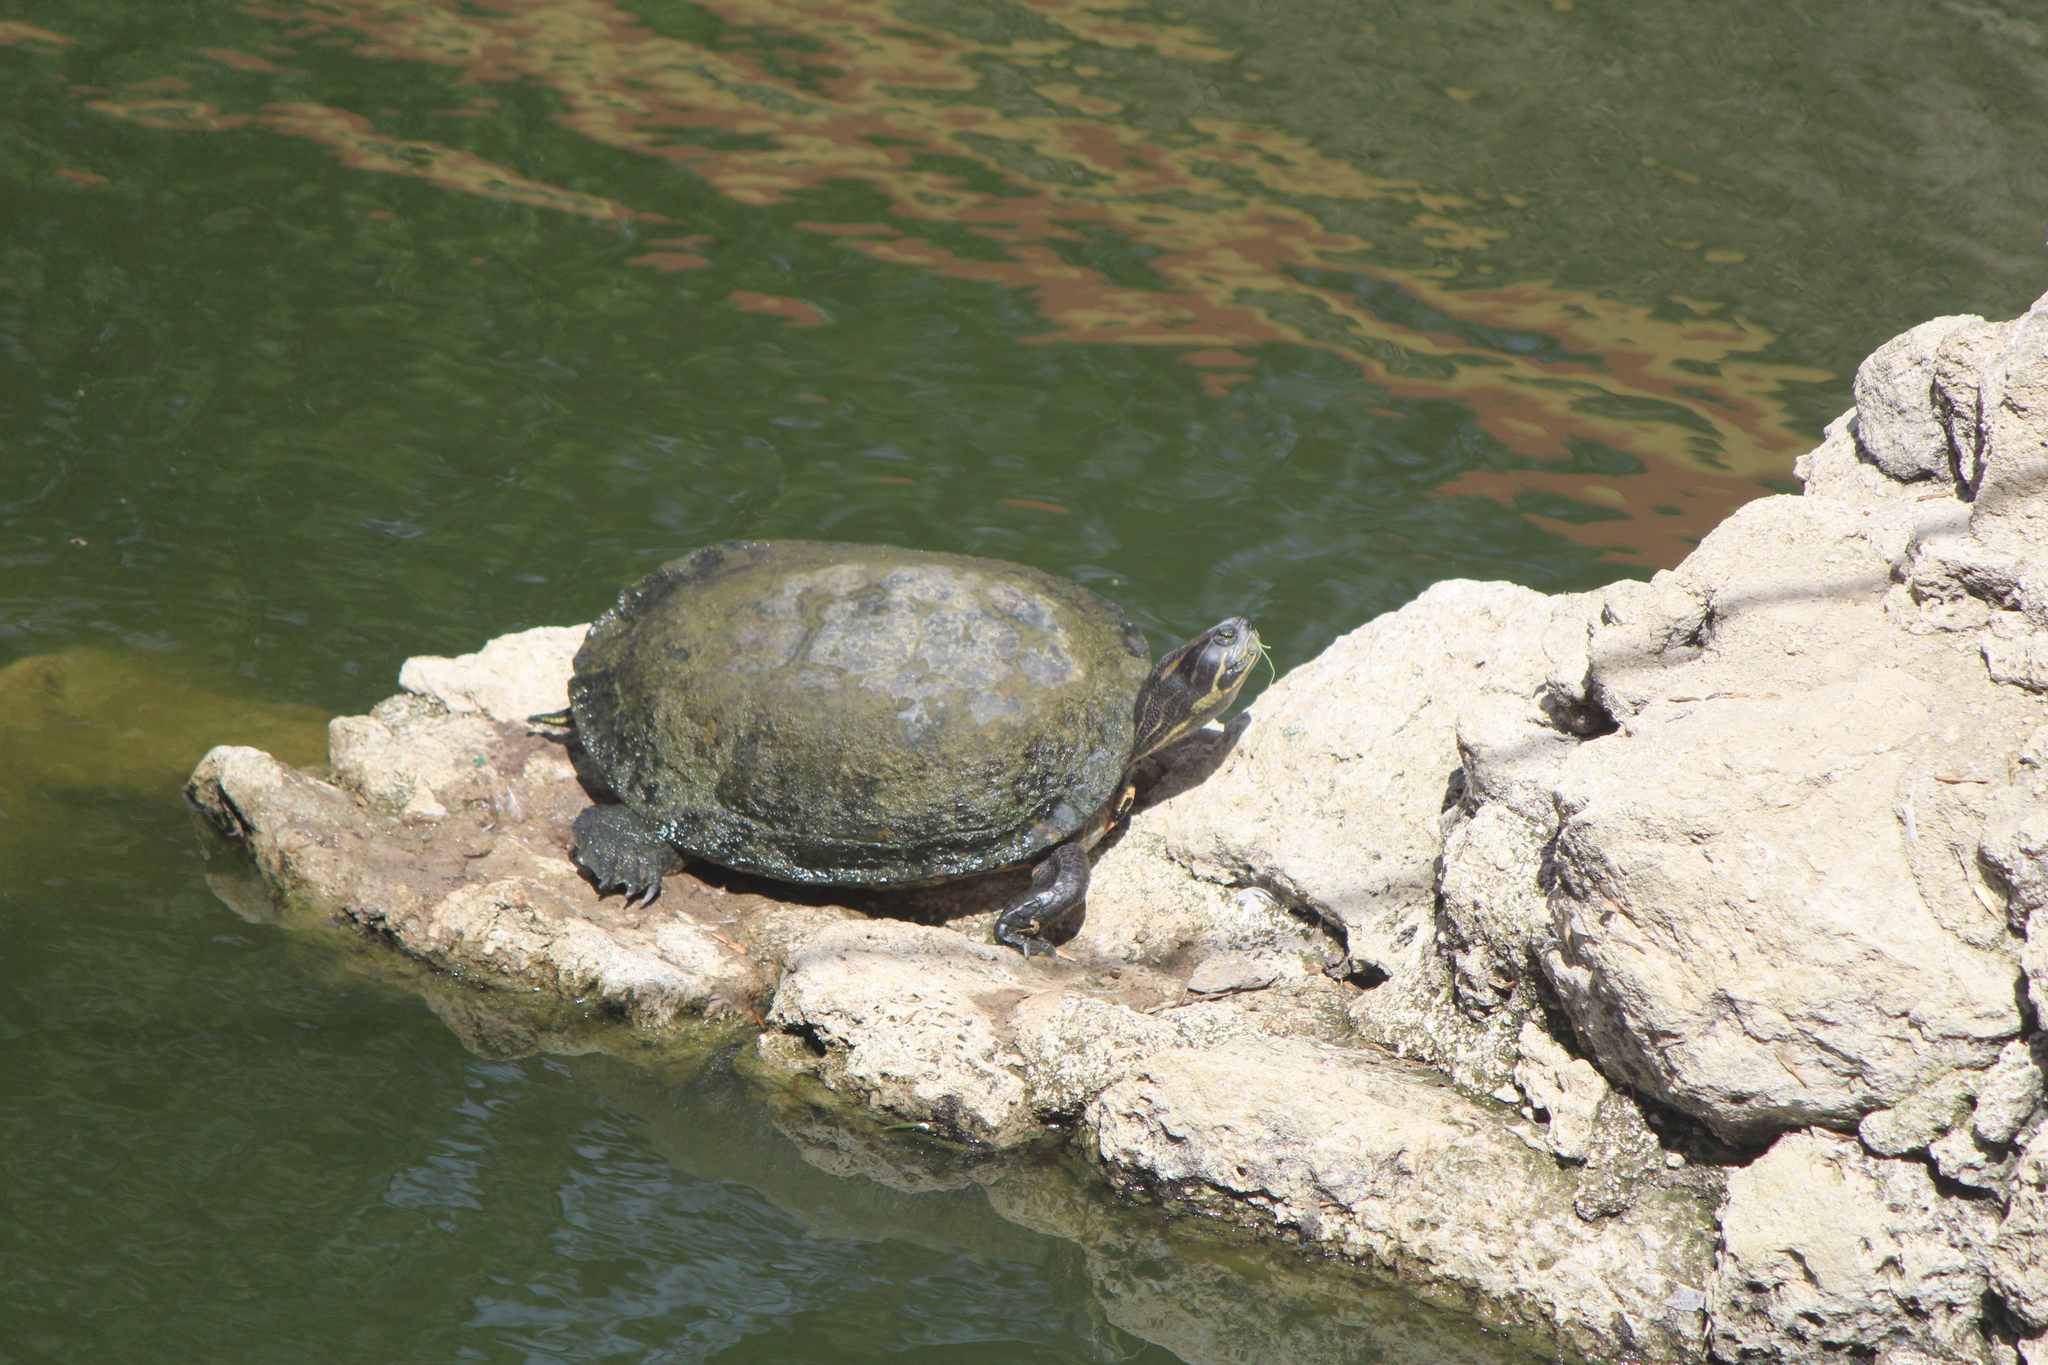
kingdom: Animalia
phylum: Chordata
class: Testudines
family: Emydidae
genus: Trachemys
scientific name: Trachemys venusta
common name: Mesoamerican slider
